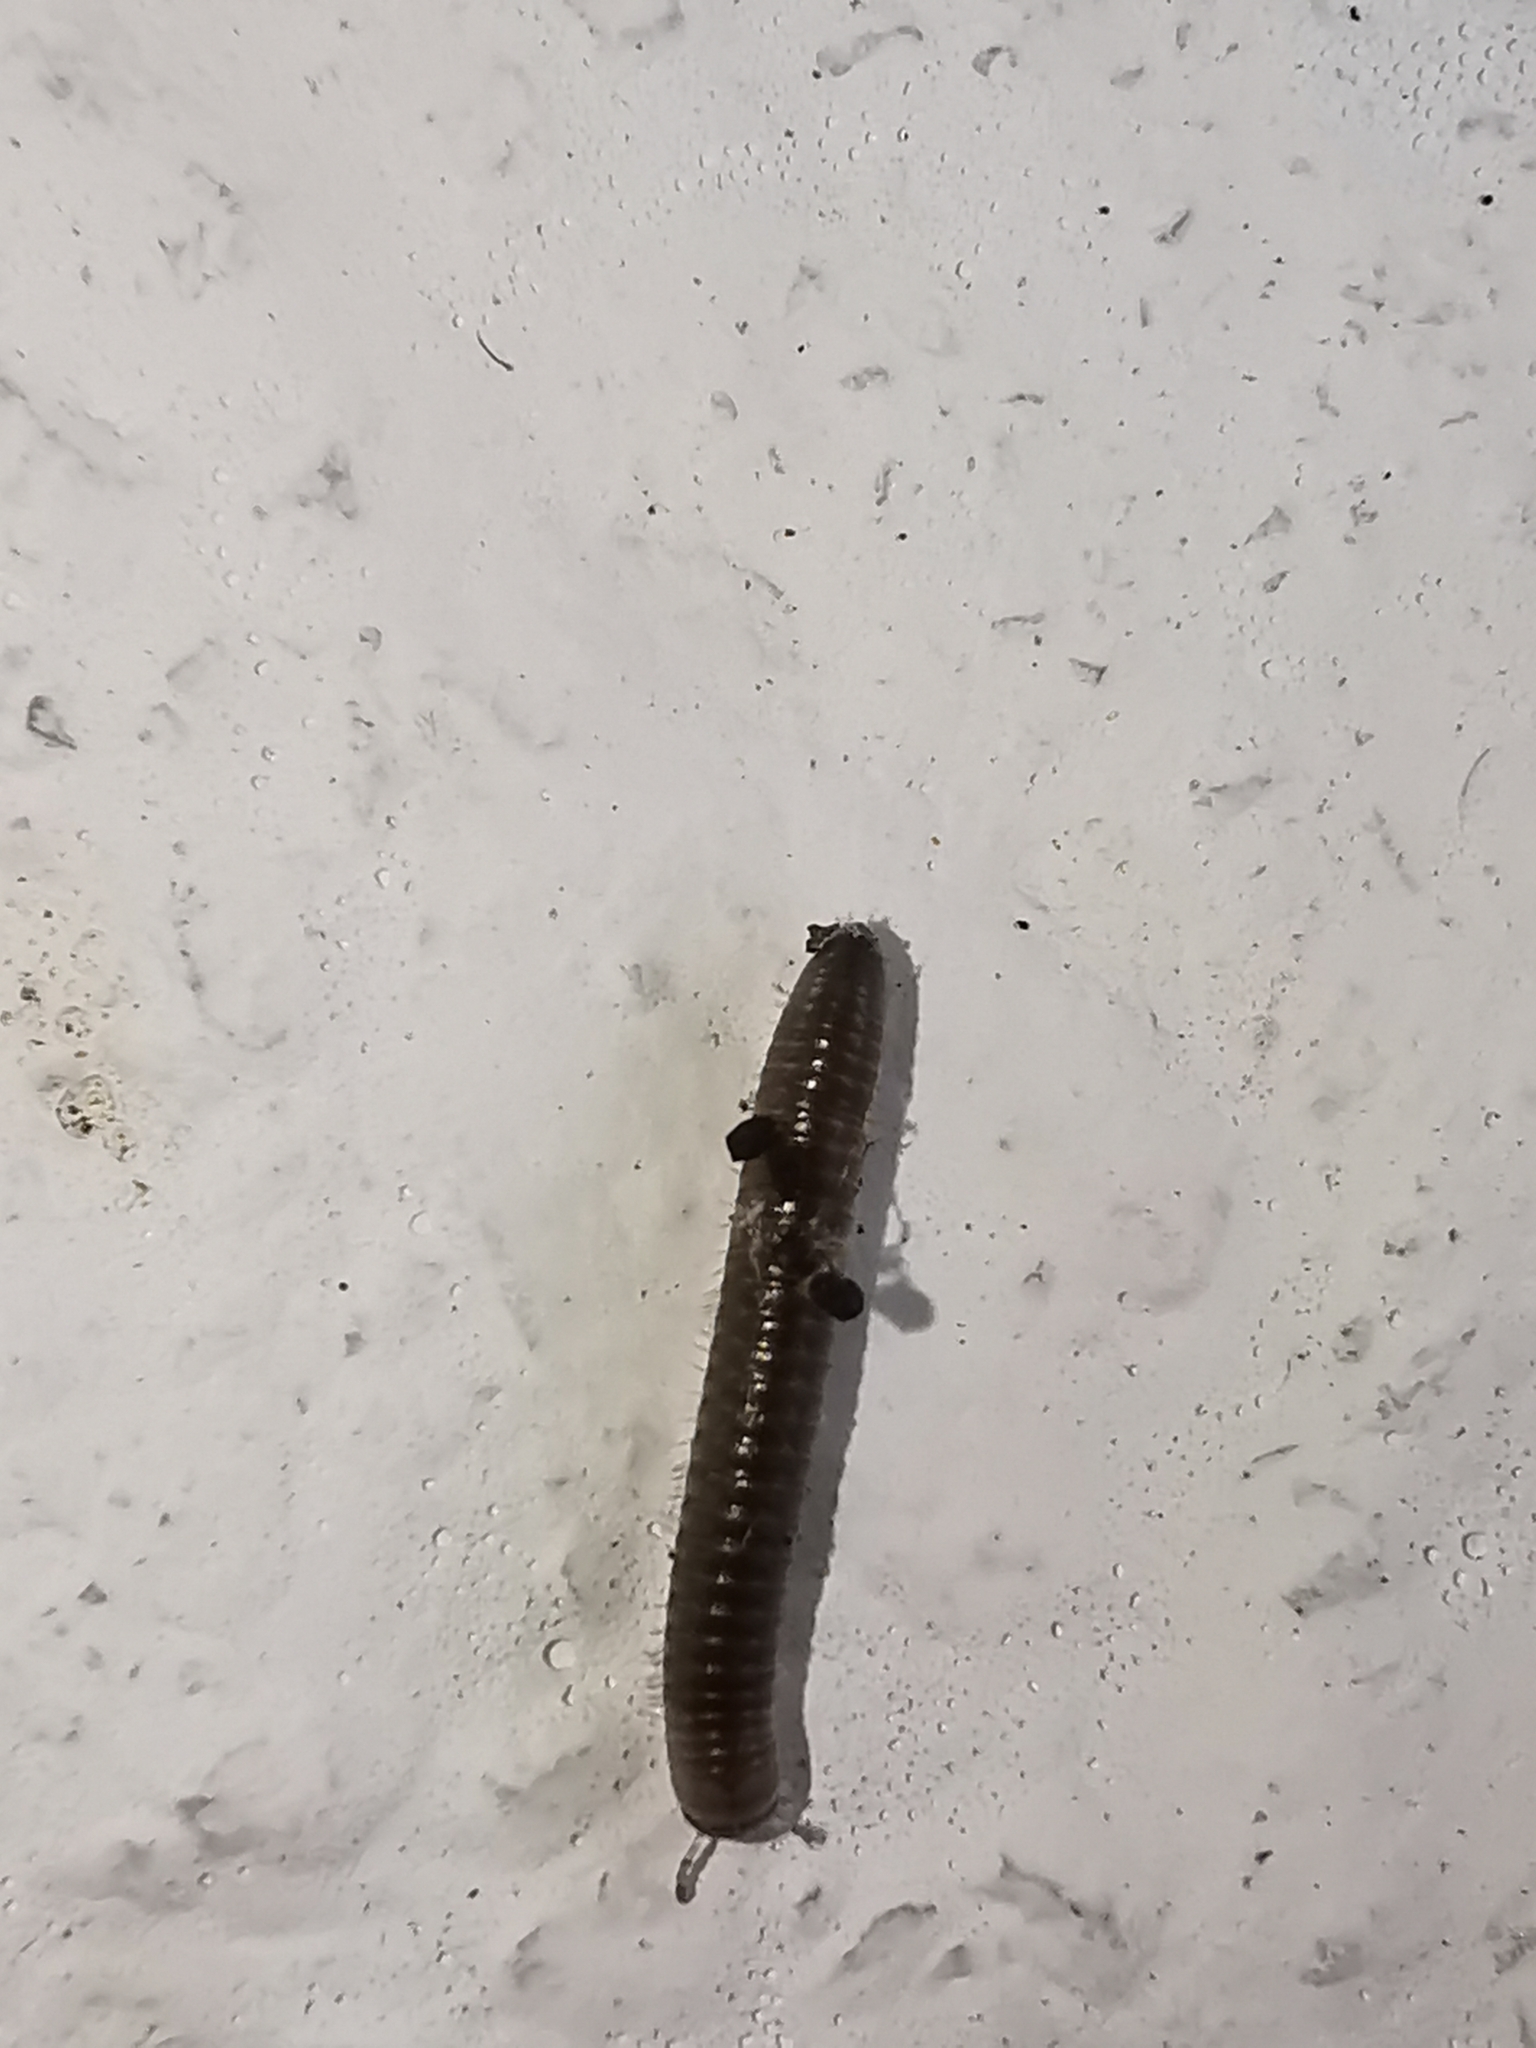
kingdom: Animalia
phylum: Arthropoda
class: Diplopoda
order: Julida
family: Julidae
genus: Pachyiulus
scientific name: Pachyiulus flavipes
